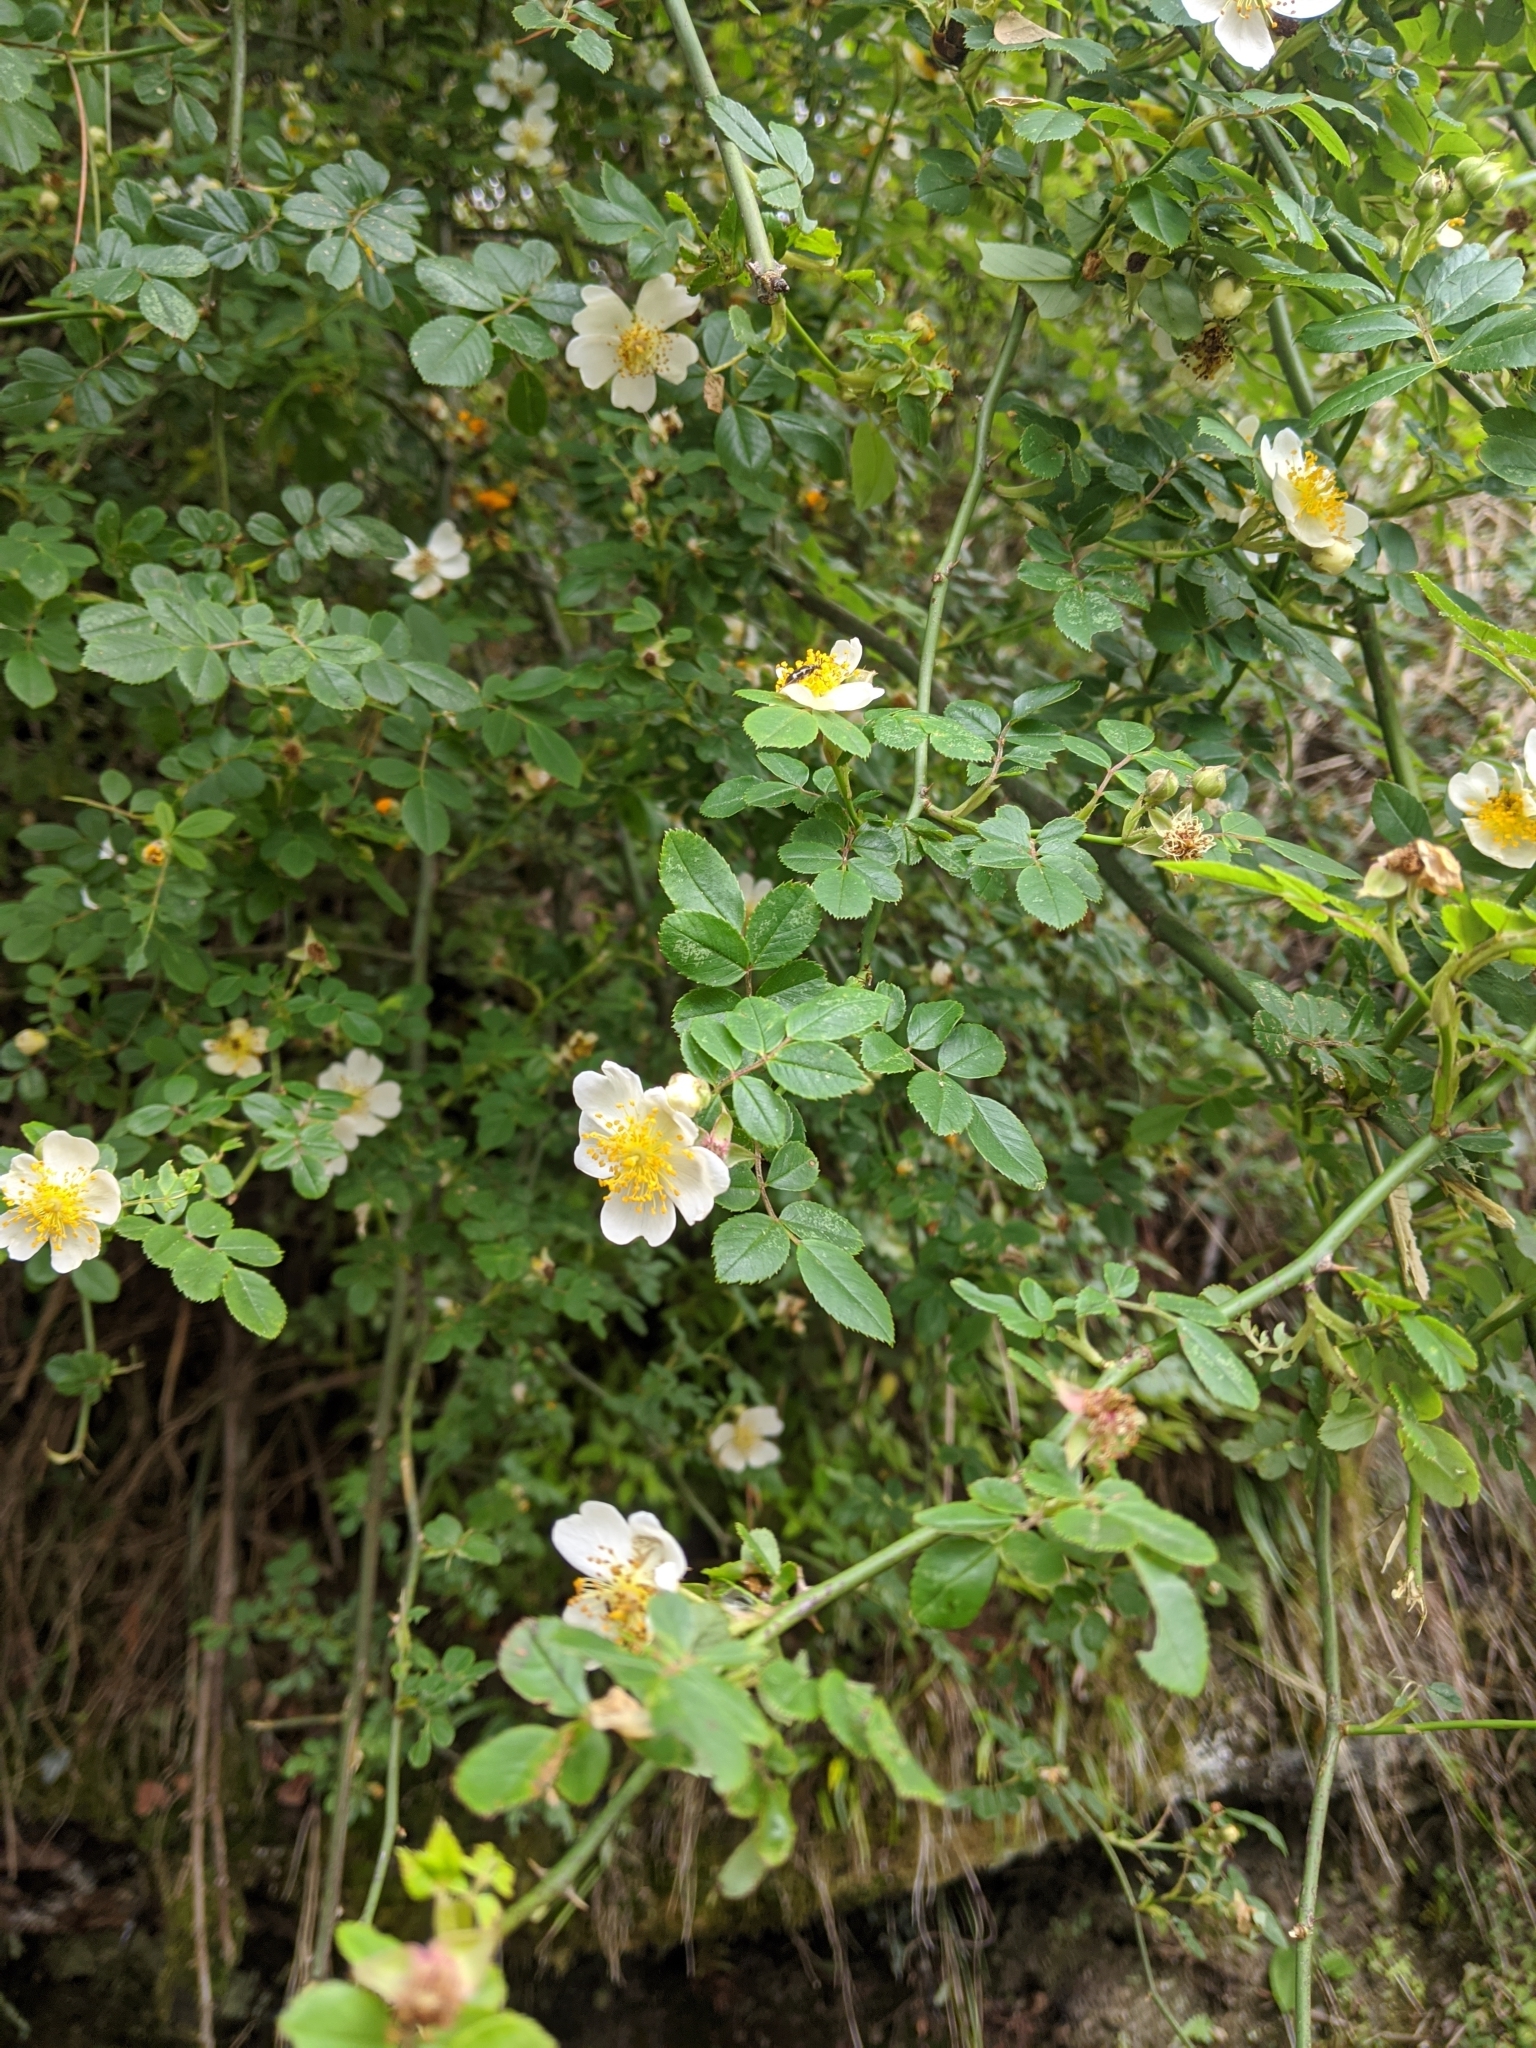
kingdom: Plantae
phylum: Tracheophyta
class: Magnoliopsida
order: Rosales
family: Rosaceae
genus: Rosa
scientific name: Rosa transmorrisonensis
